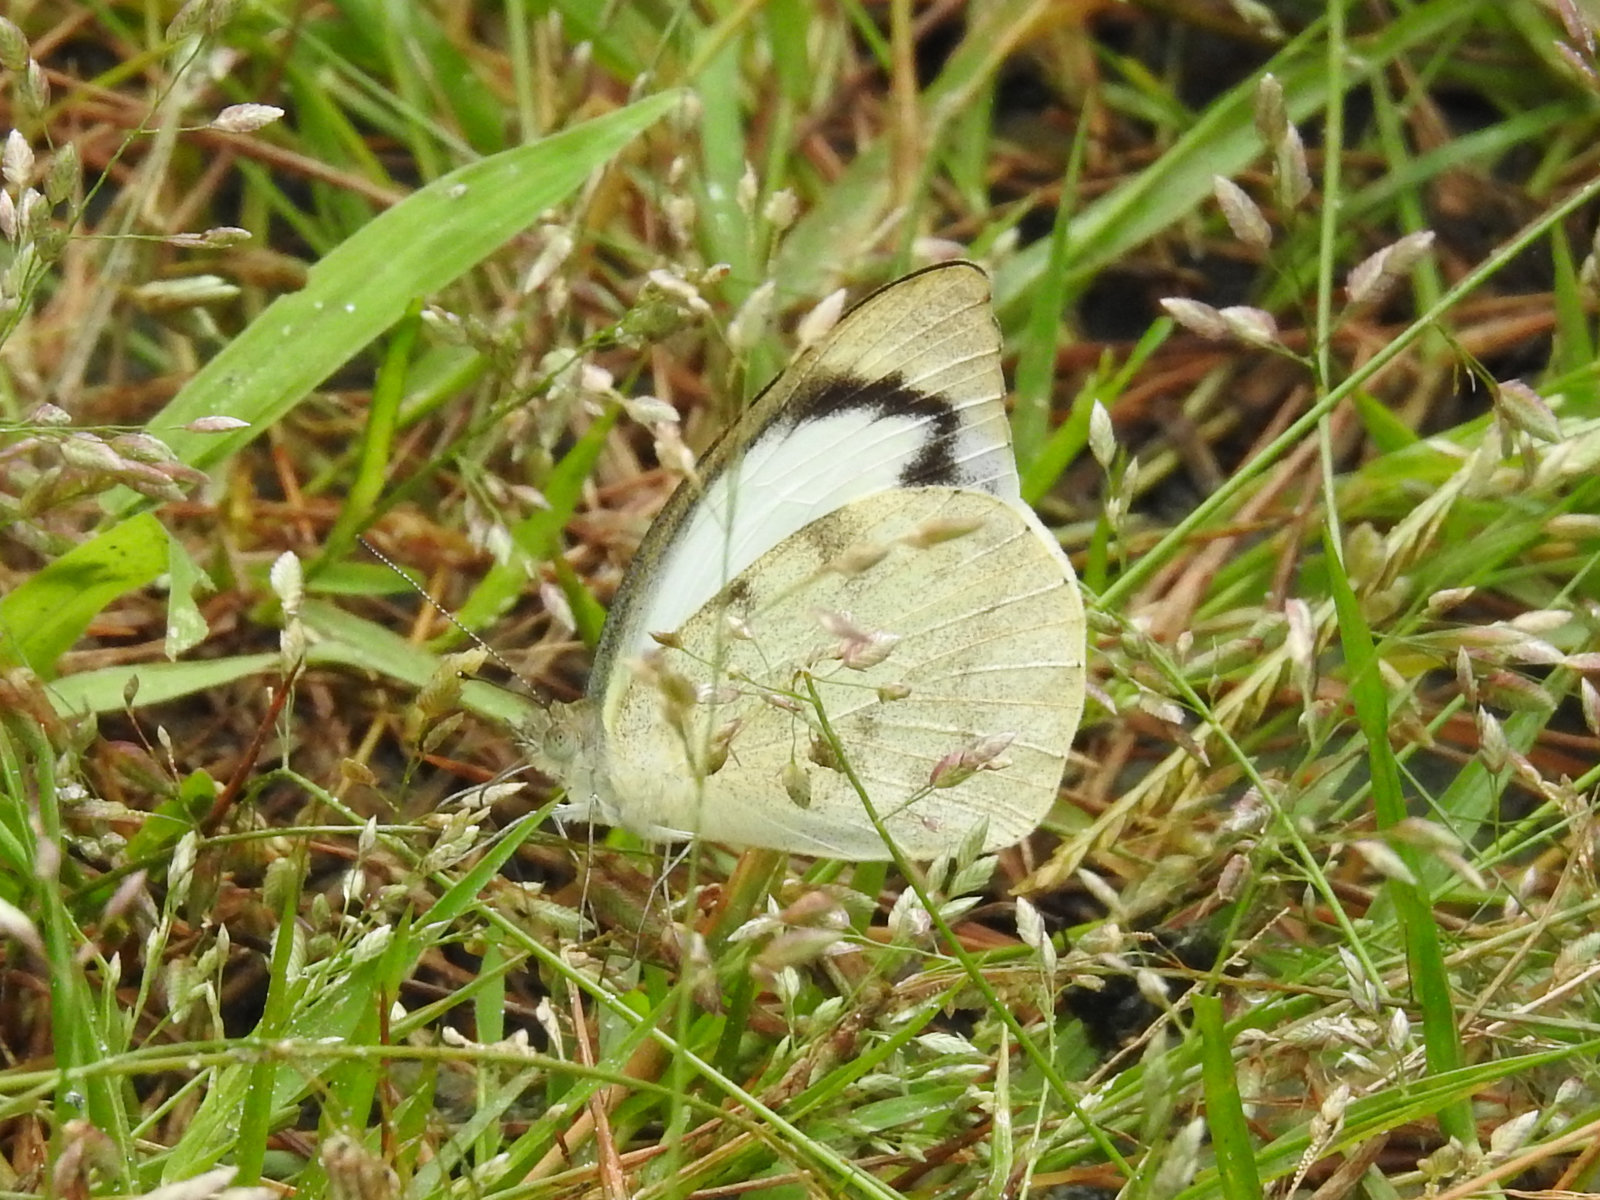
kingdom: Animalia
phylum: Arthropoda
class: Insecta
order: Lepidoptera
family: Pieridae
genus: Appias
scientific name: Appias indra
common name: Plain puffin
